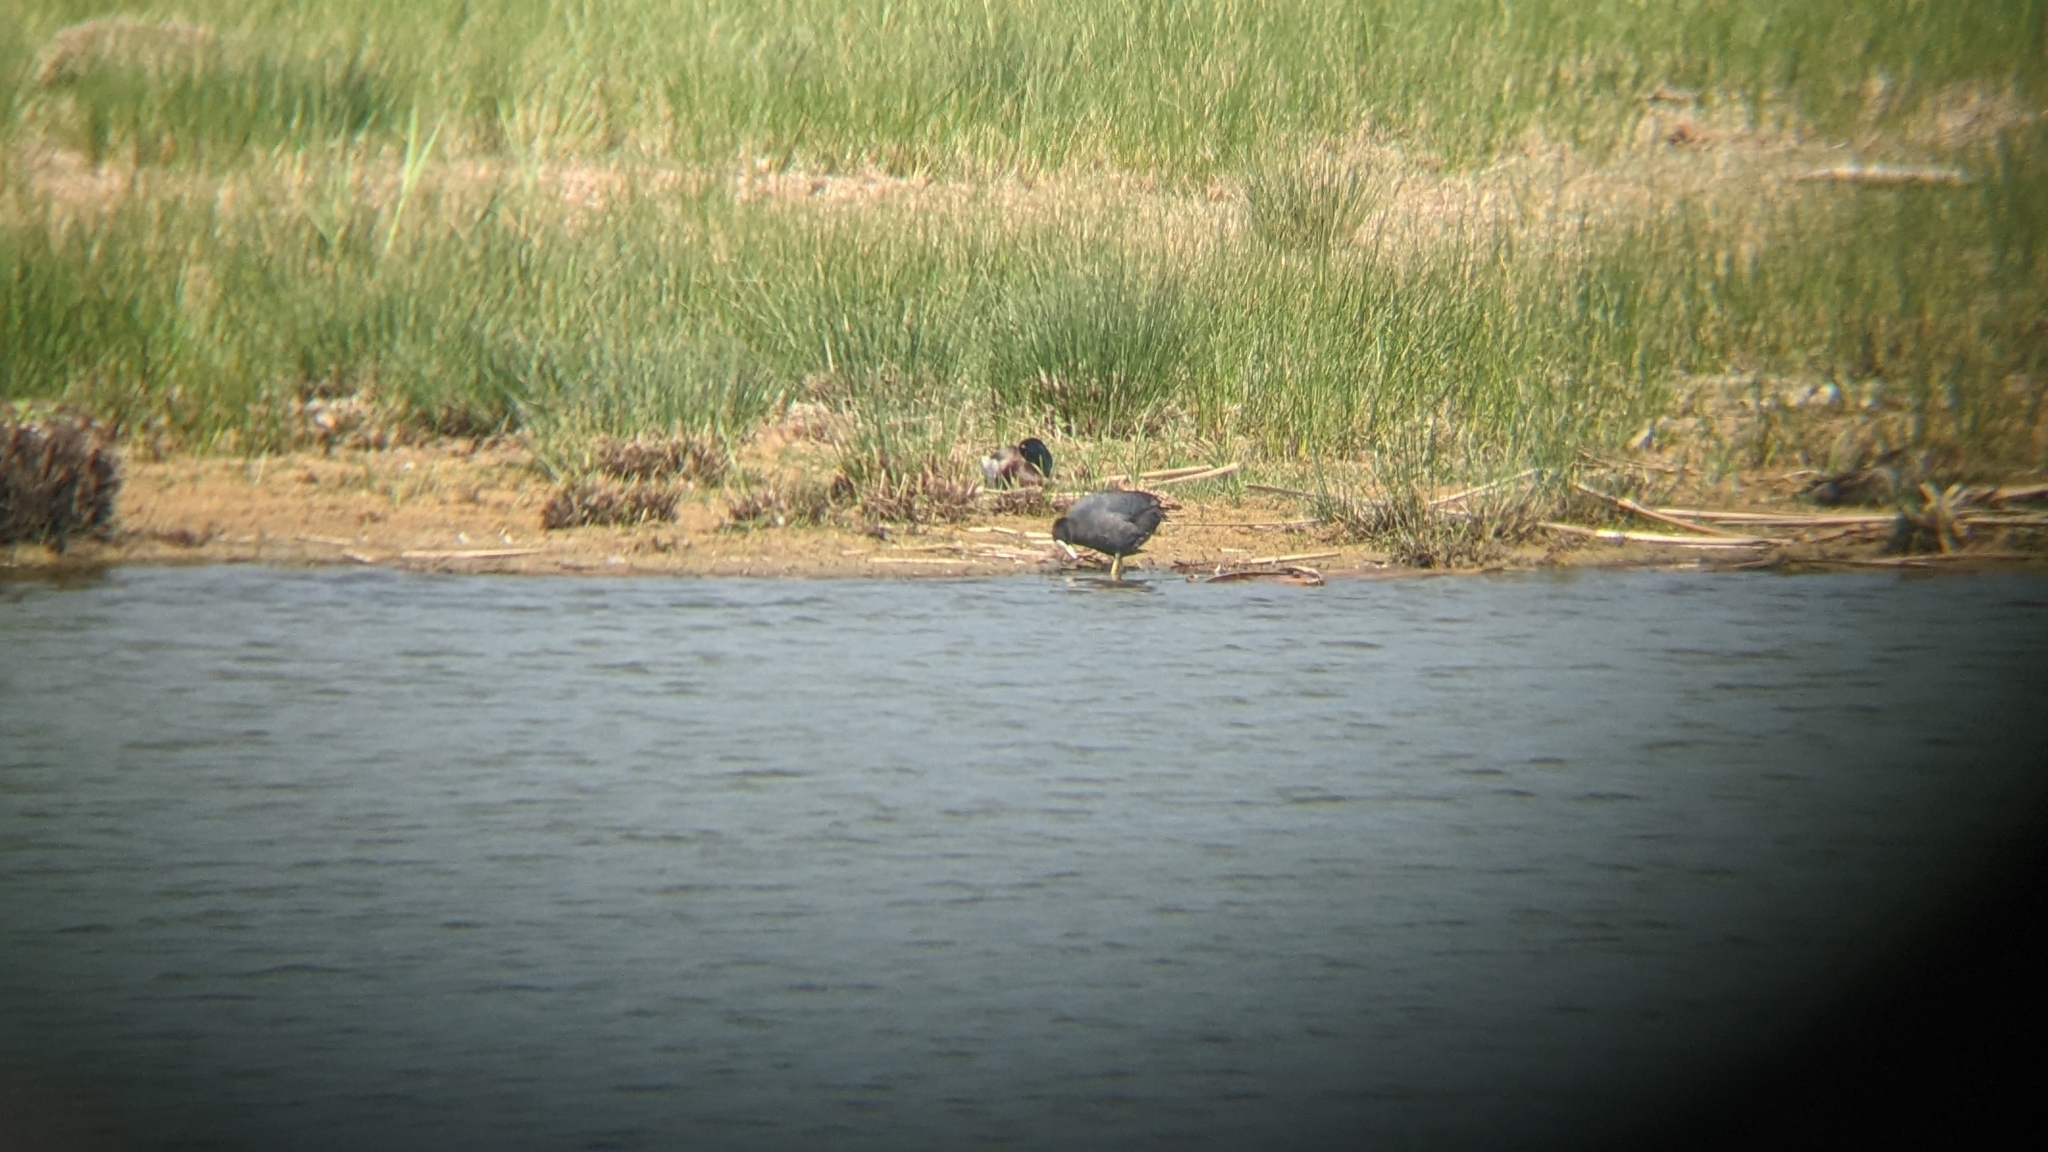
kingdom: Animalia
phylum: Chordata
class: Aves
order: Gruiformes
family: Rallidae
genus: Fulica
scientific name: Fulica atra
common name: Eurasian coot
